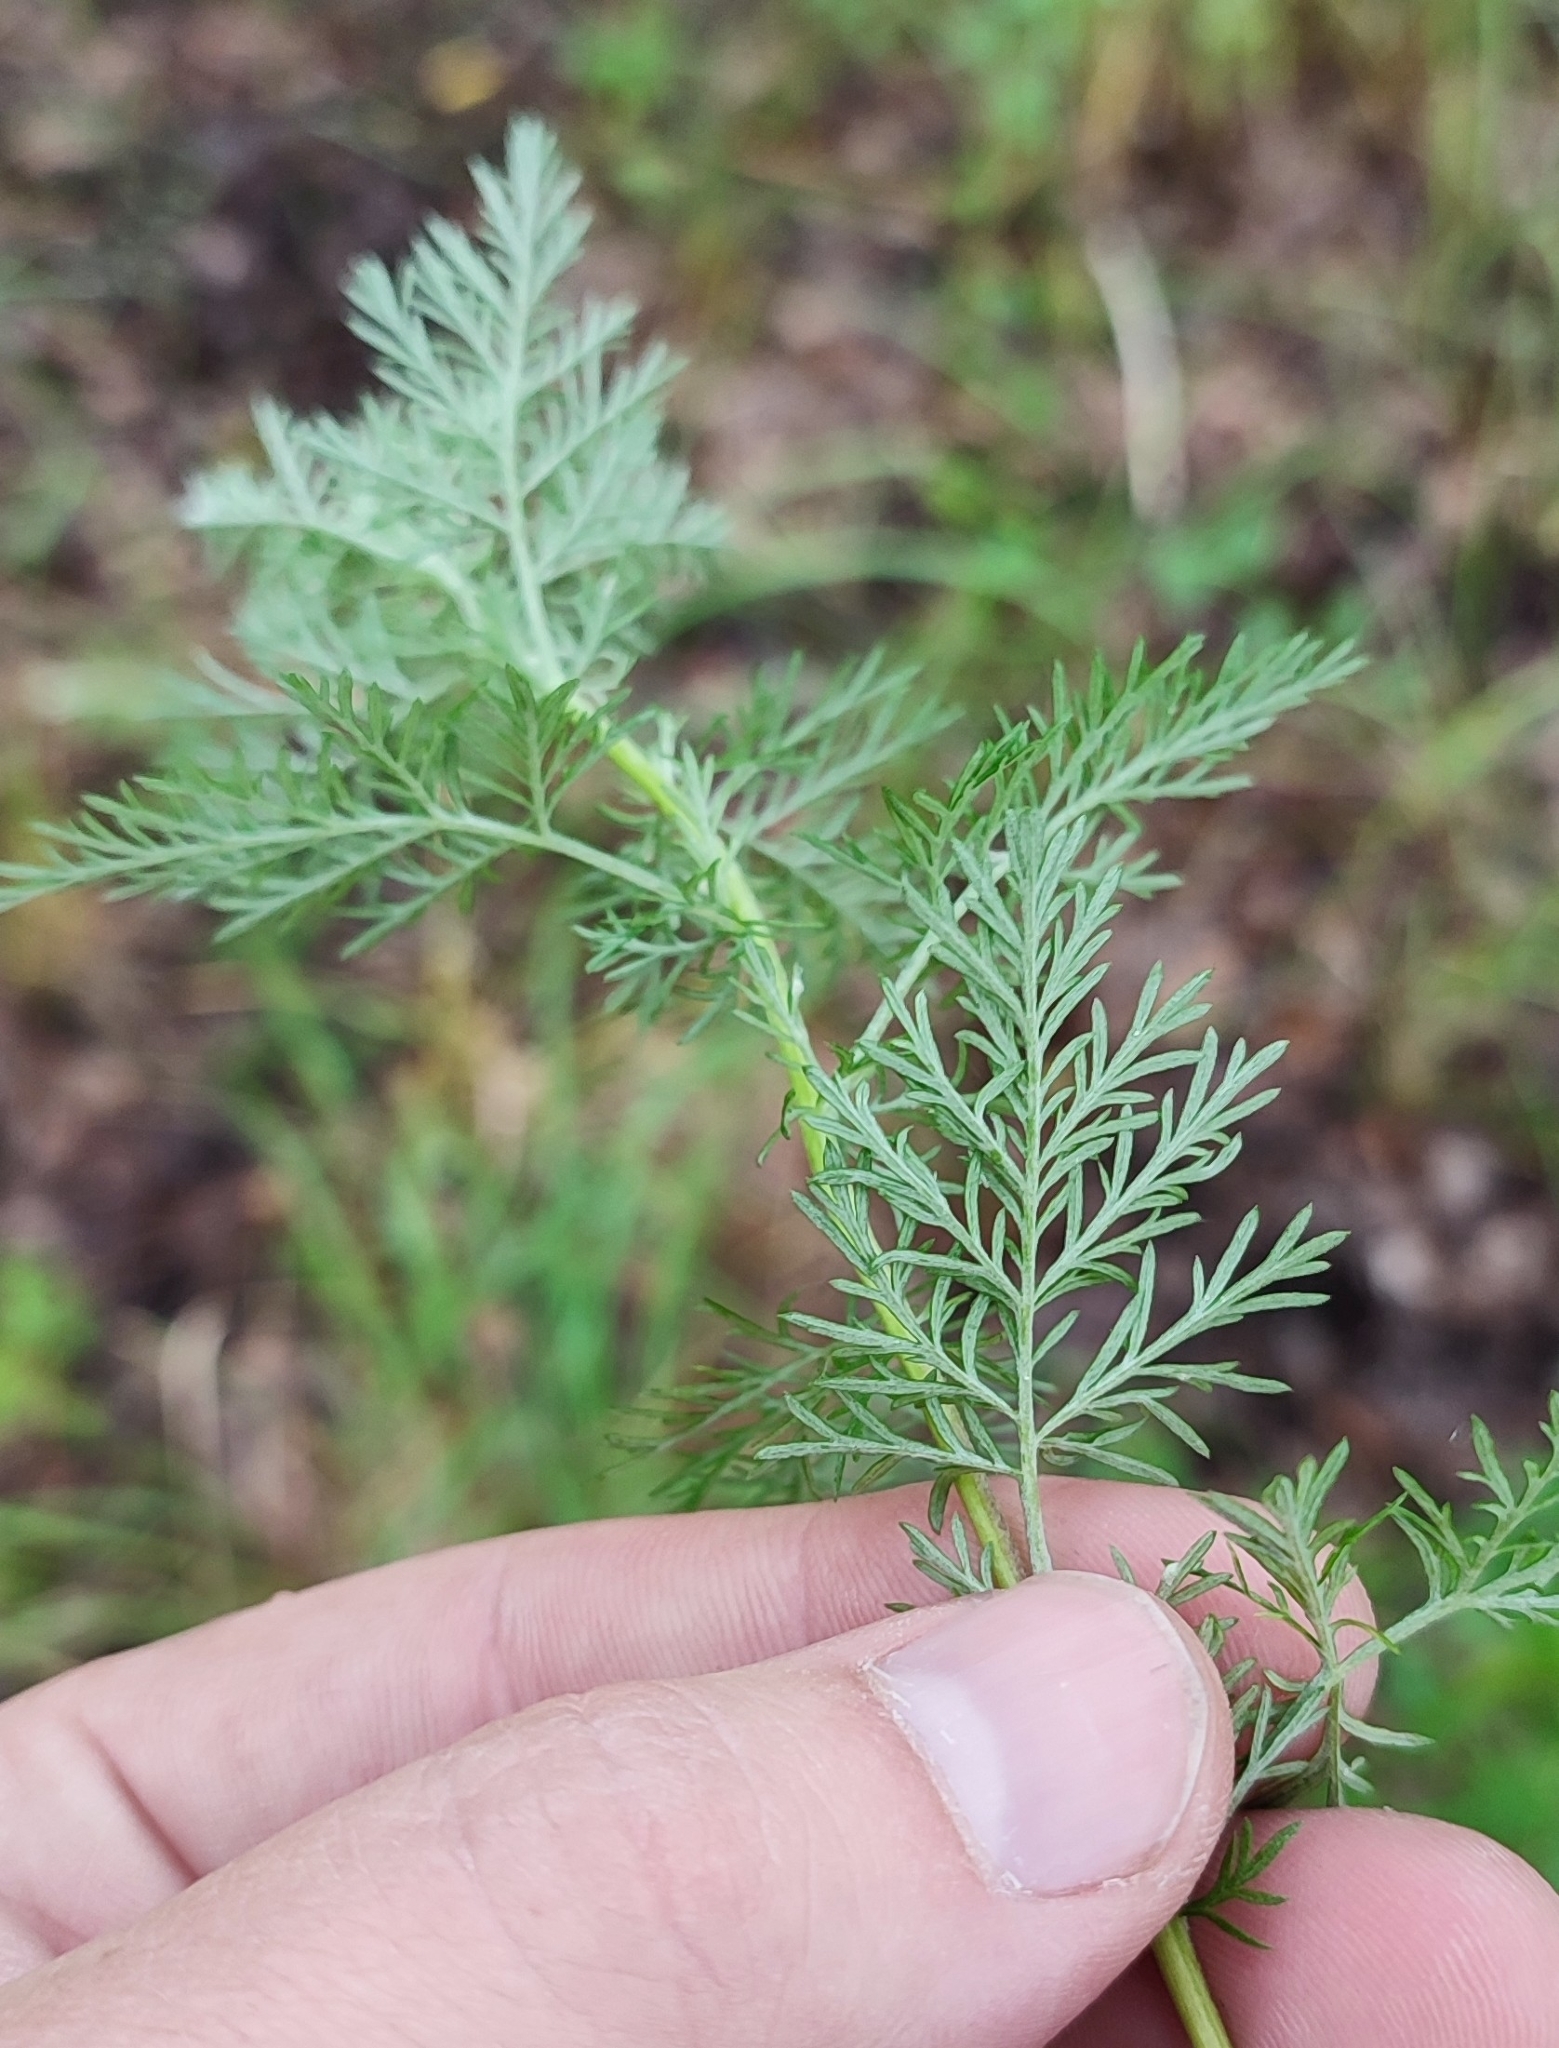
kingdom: Plantae
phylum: Tracheophyta
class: Magnoliopsida
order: Asterales
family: Asteraceae
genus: Artemisia
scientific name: Artemisia macrantha
